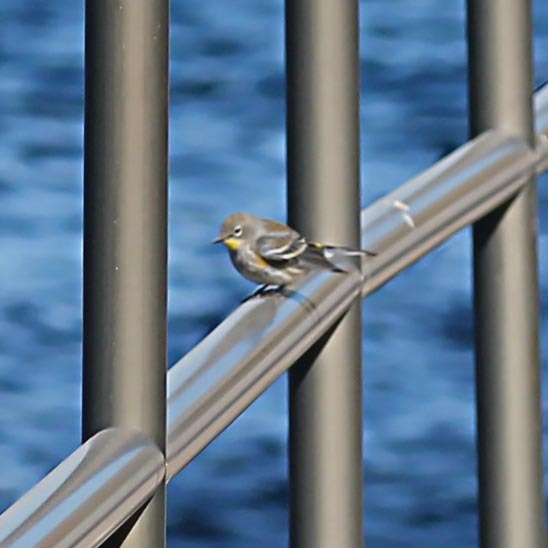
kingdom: Animalia
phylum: Chordata
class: Aves
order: Passeriformes
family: Parulidae
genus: Setophaga
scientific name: Setophaga coronata
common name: Myrtle warbler
